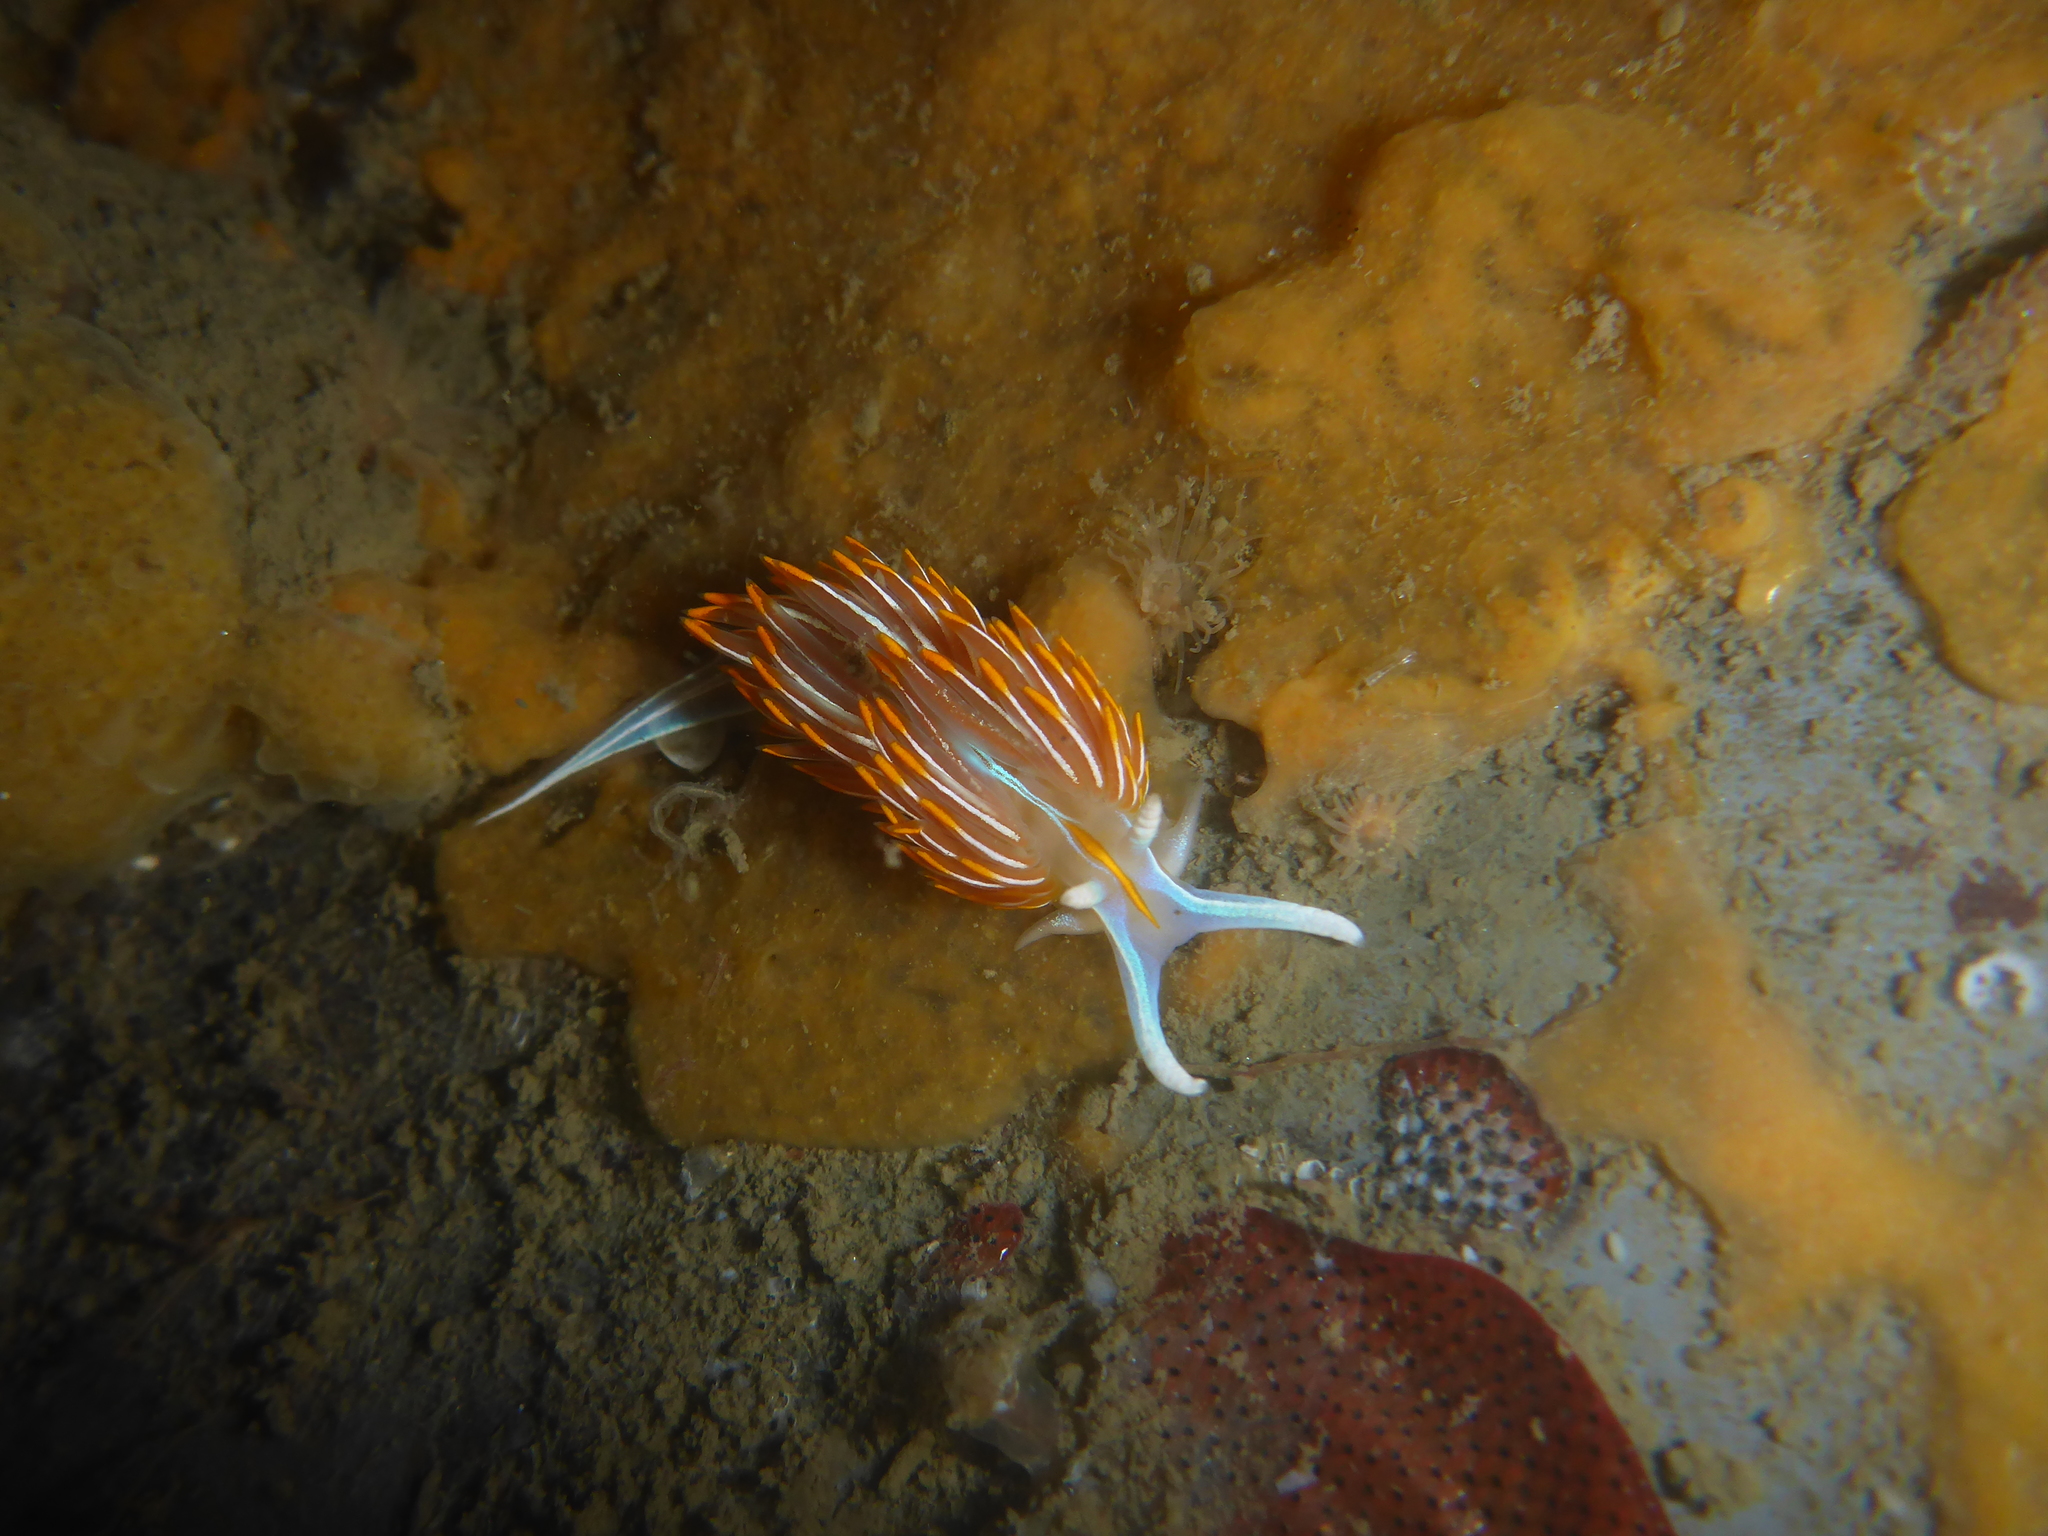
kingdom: Animalia
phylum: Mollusca
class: Gastropoda
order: Nudibranchia
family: Myrrhinidae
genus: Hermissenda
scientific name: Hermissenda crassicornis
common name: Hermissenda
